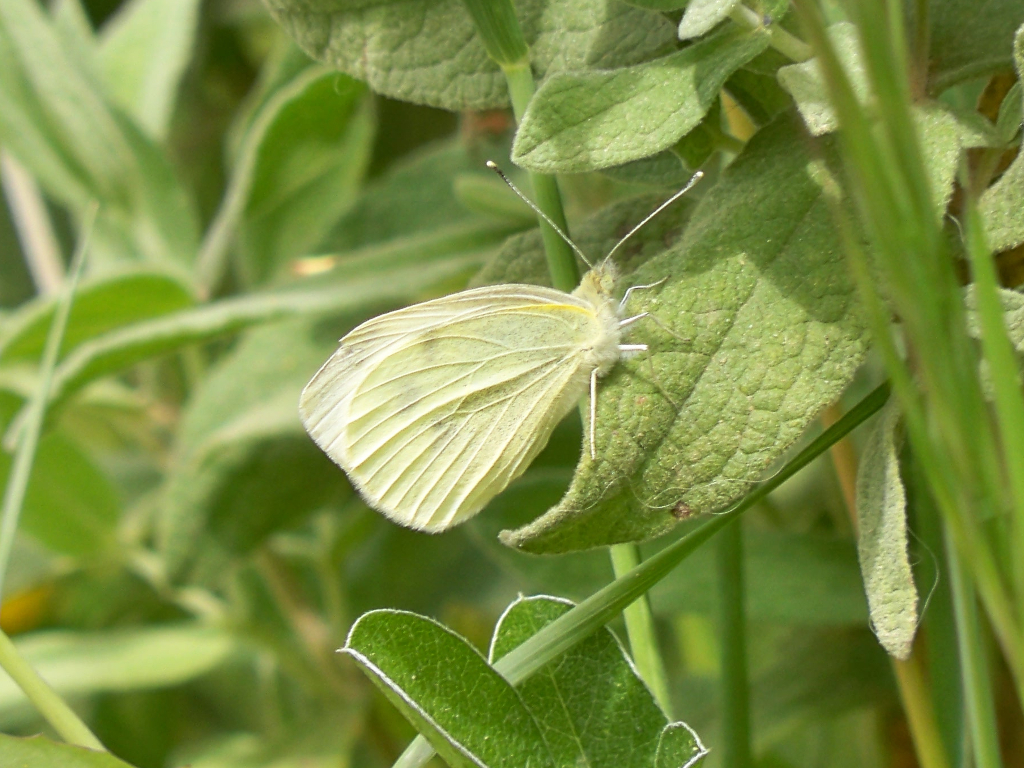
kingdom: Animalia
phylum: Arthropoda
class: Insecta
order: Lepidoptera
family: Pieridae
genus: Pieris
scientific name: Pieris rapae
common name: Small white
